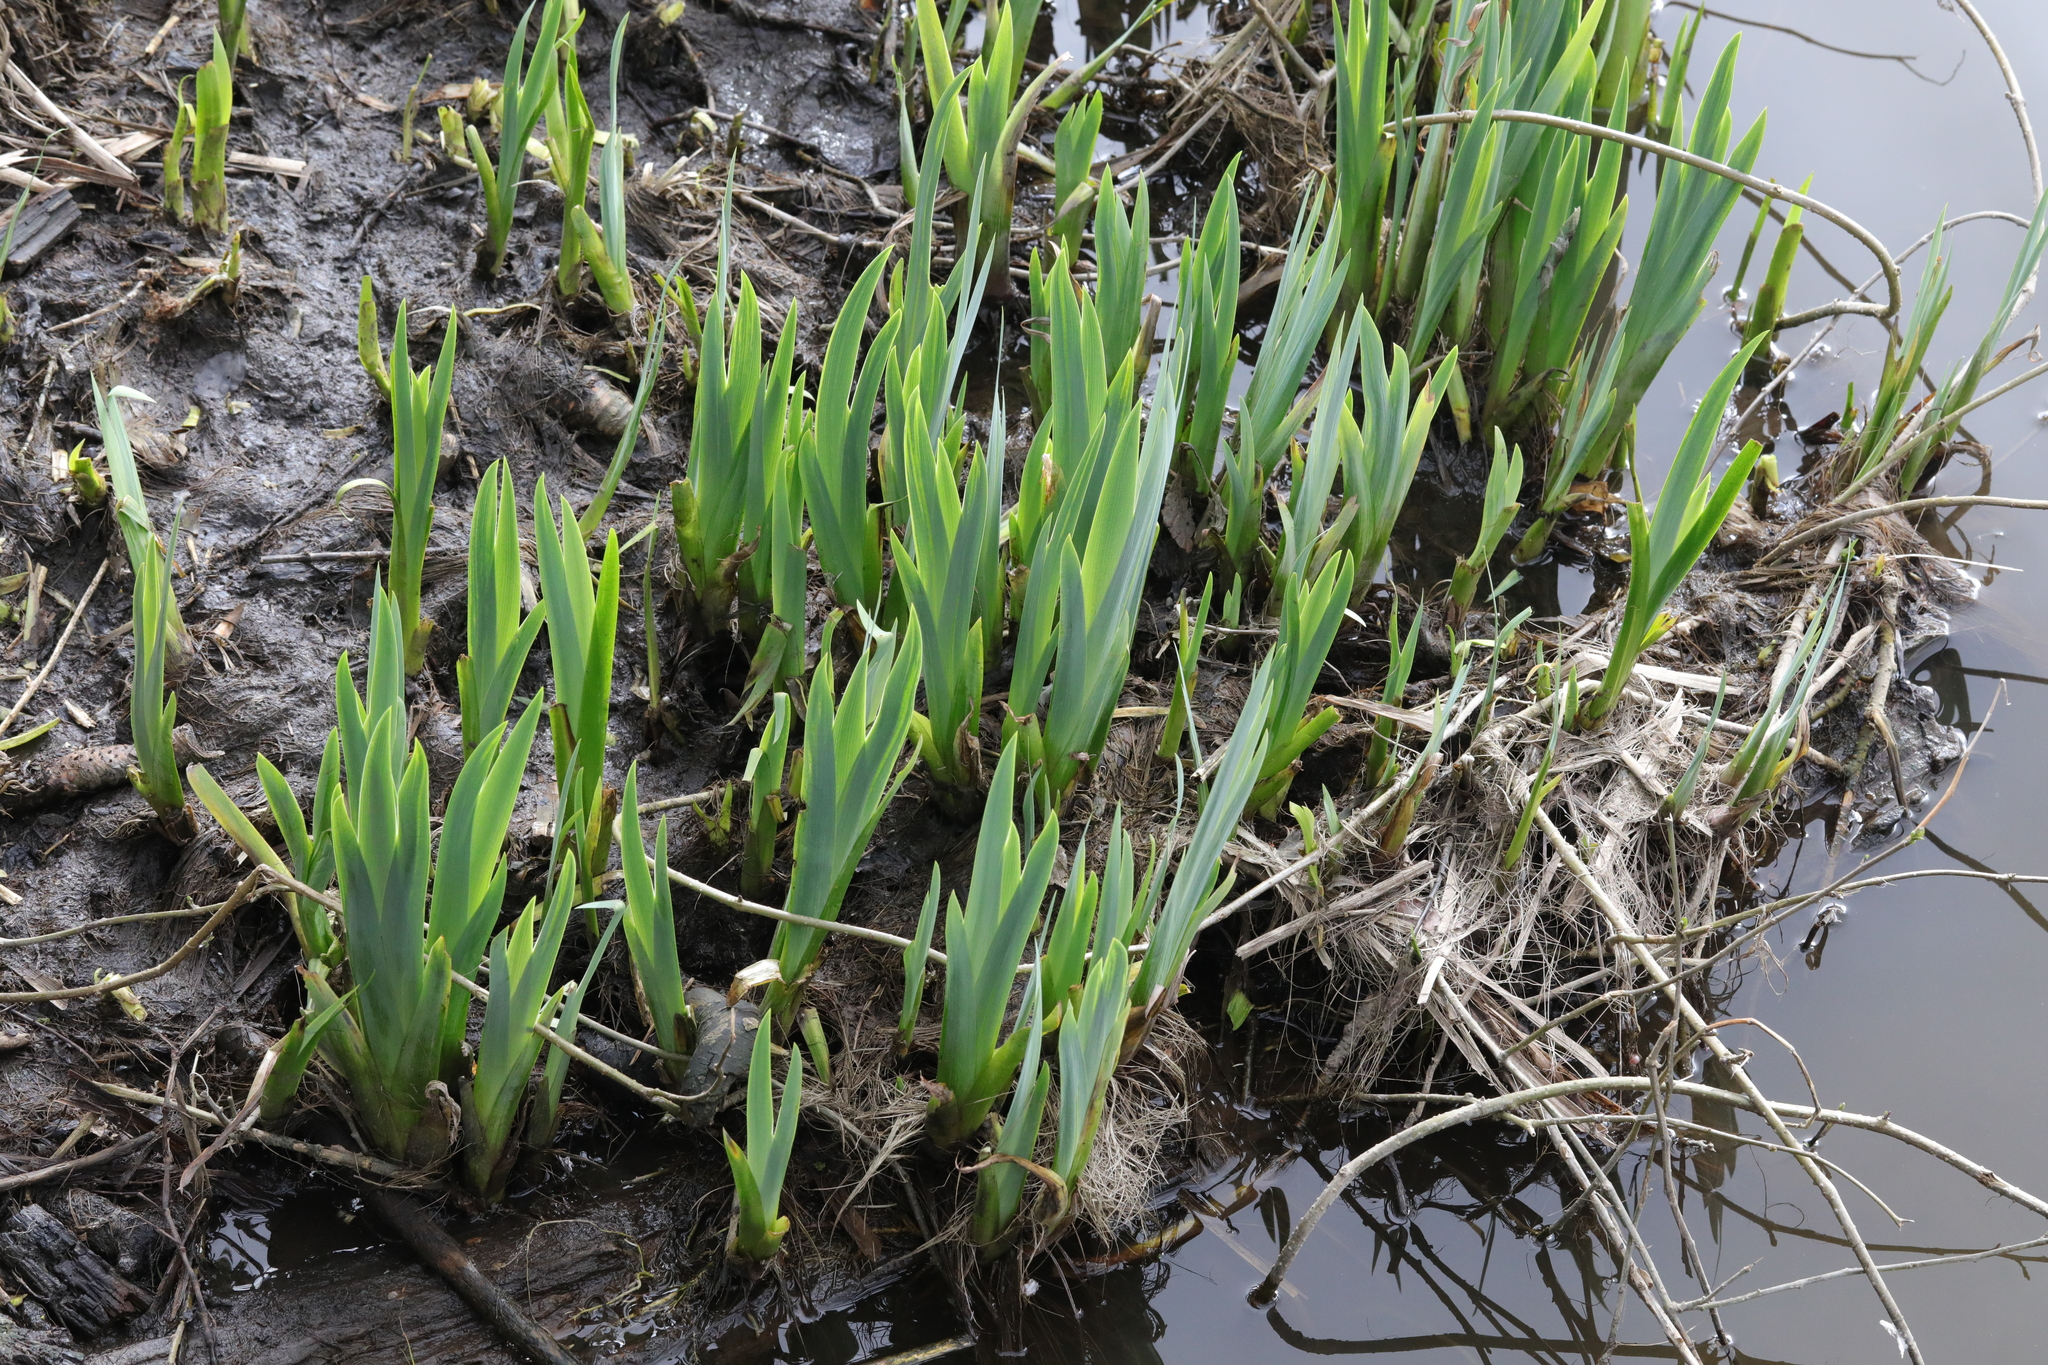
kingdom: Plantae
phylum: Tracheophyta
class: Liliopsida
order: Asparagales
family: Iridaceae
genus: Iris
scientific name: Iris pseudacorus
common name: Yellow flag
